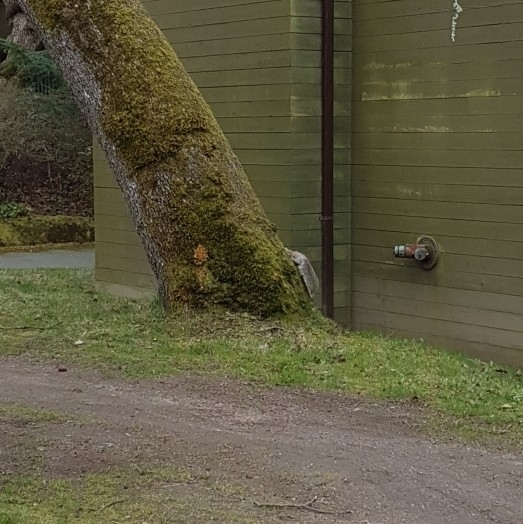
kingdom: Animalia
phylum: Chordata
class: Mammalia
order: Rodentia
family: Sciuridae
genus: Sciurus
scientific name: Sciurus carolinensis
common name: Eastern gray squirrel
